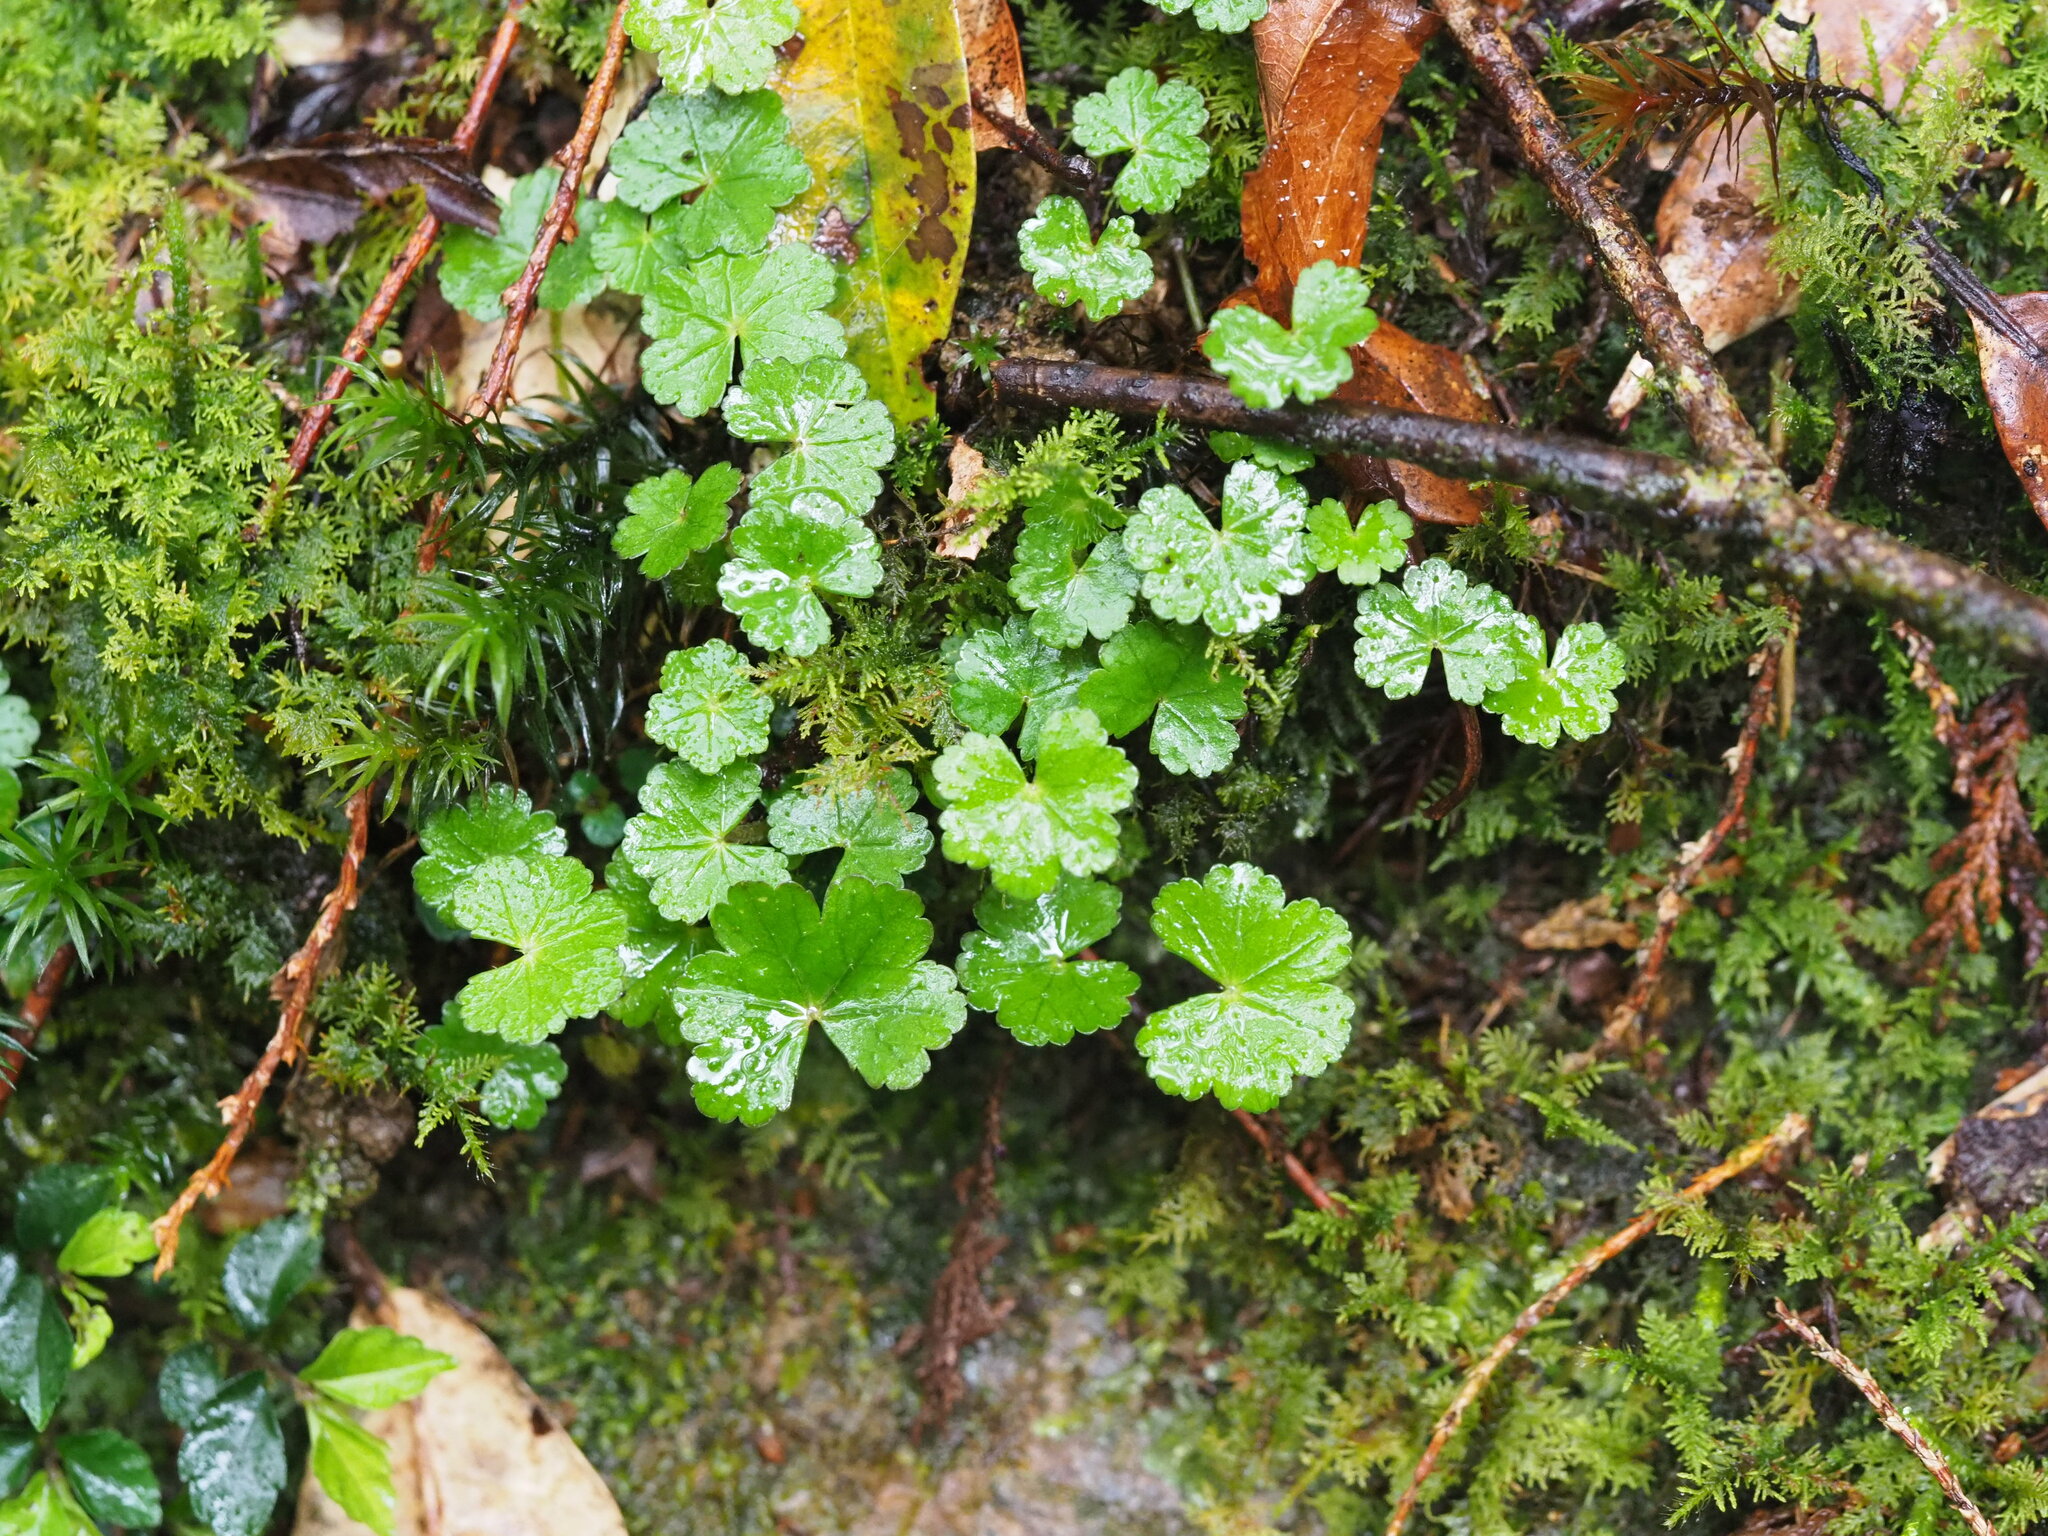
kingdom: Plantae
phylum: Tracheophyta
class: Magnoliopsida
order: Apiales
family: Araliaceae
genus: Hydrocotyle
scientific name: Hydrocotyle nepalensis
